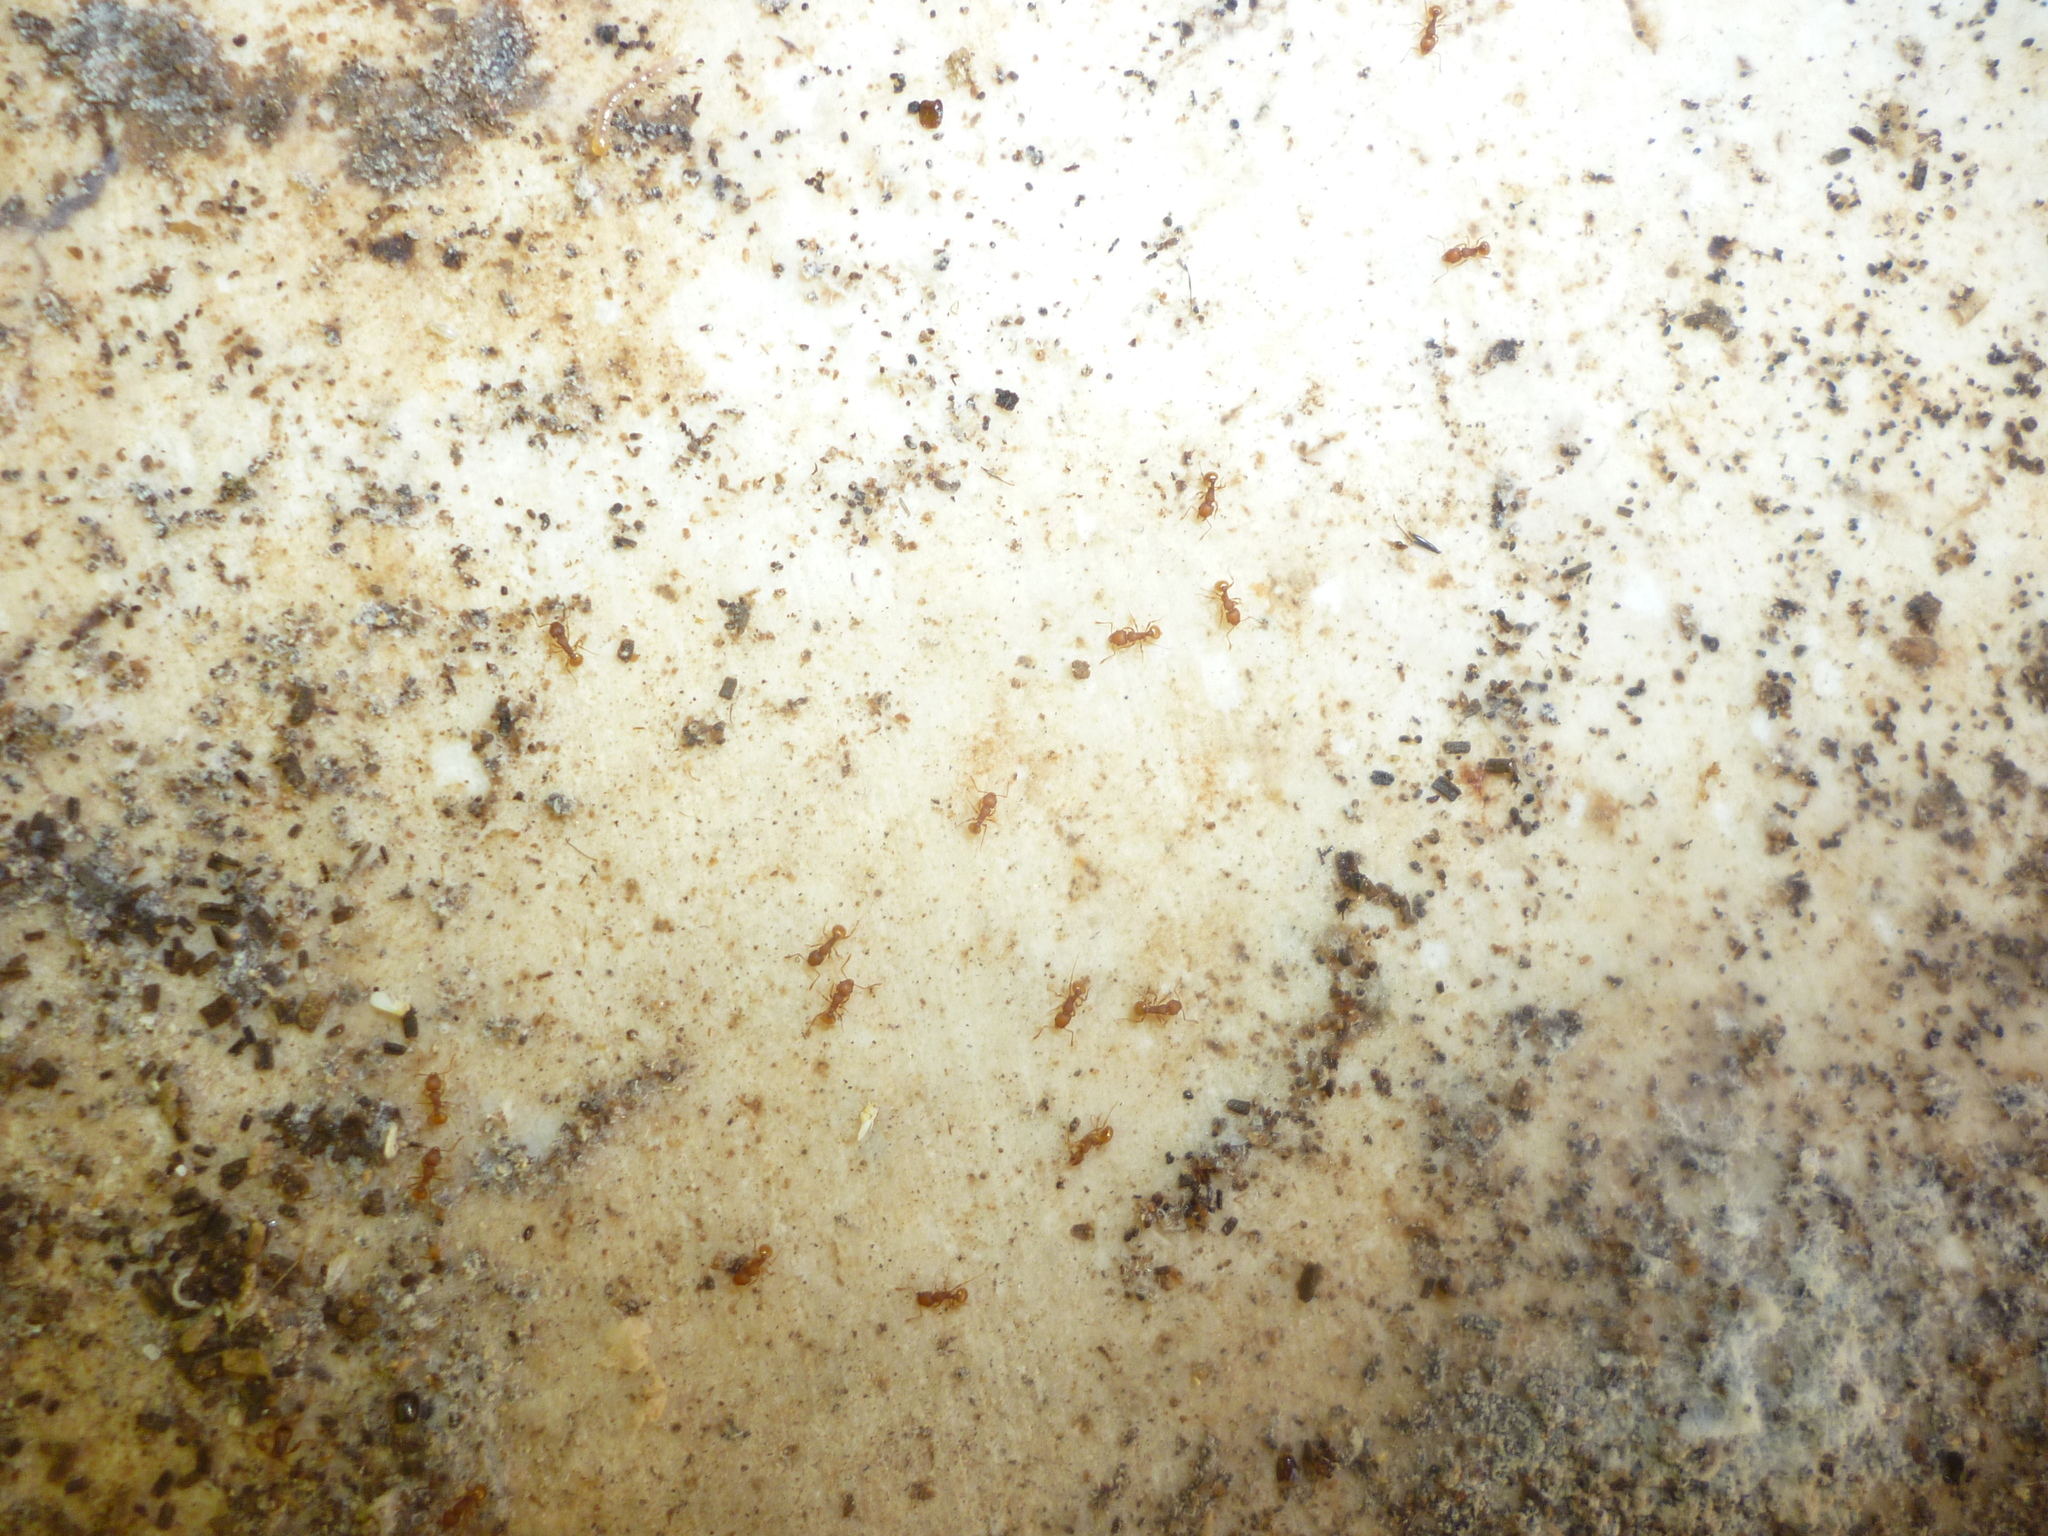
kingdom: Animalia
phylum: Arthropoda
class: Insecta
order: Hymenoptera
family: Formicidae
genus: Wasmannia
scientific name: Wasmannia auropunctata
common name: Little fire ant
